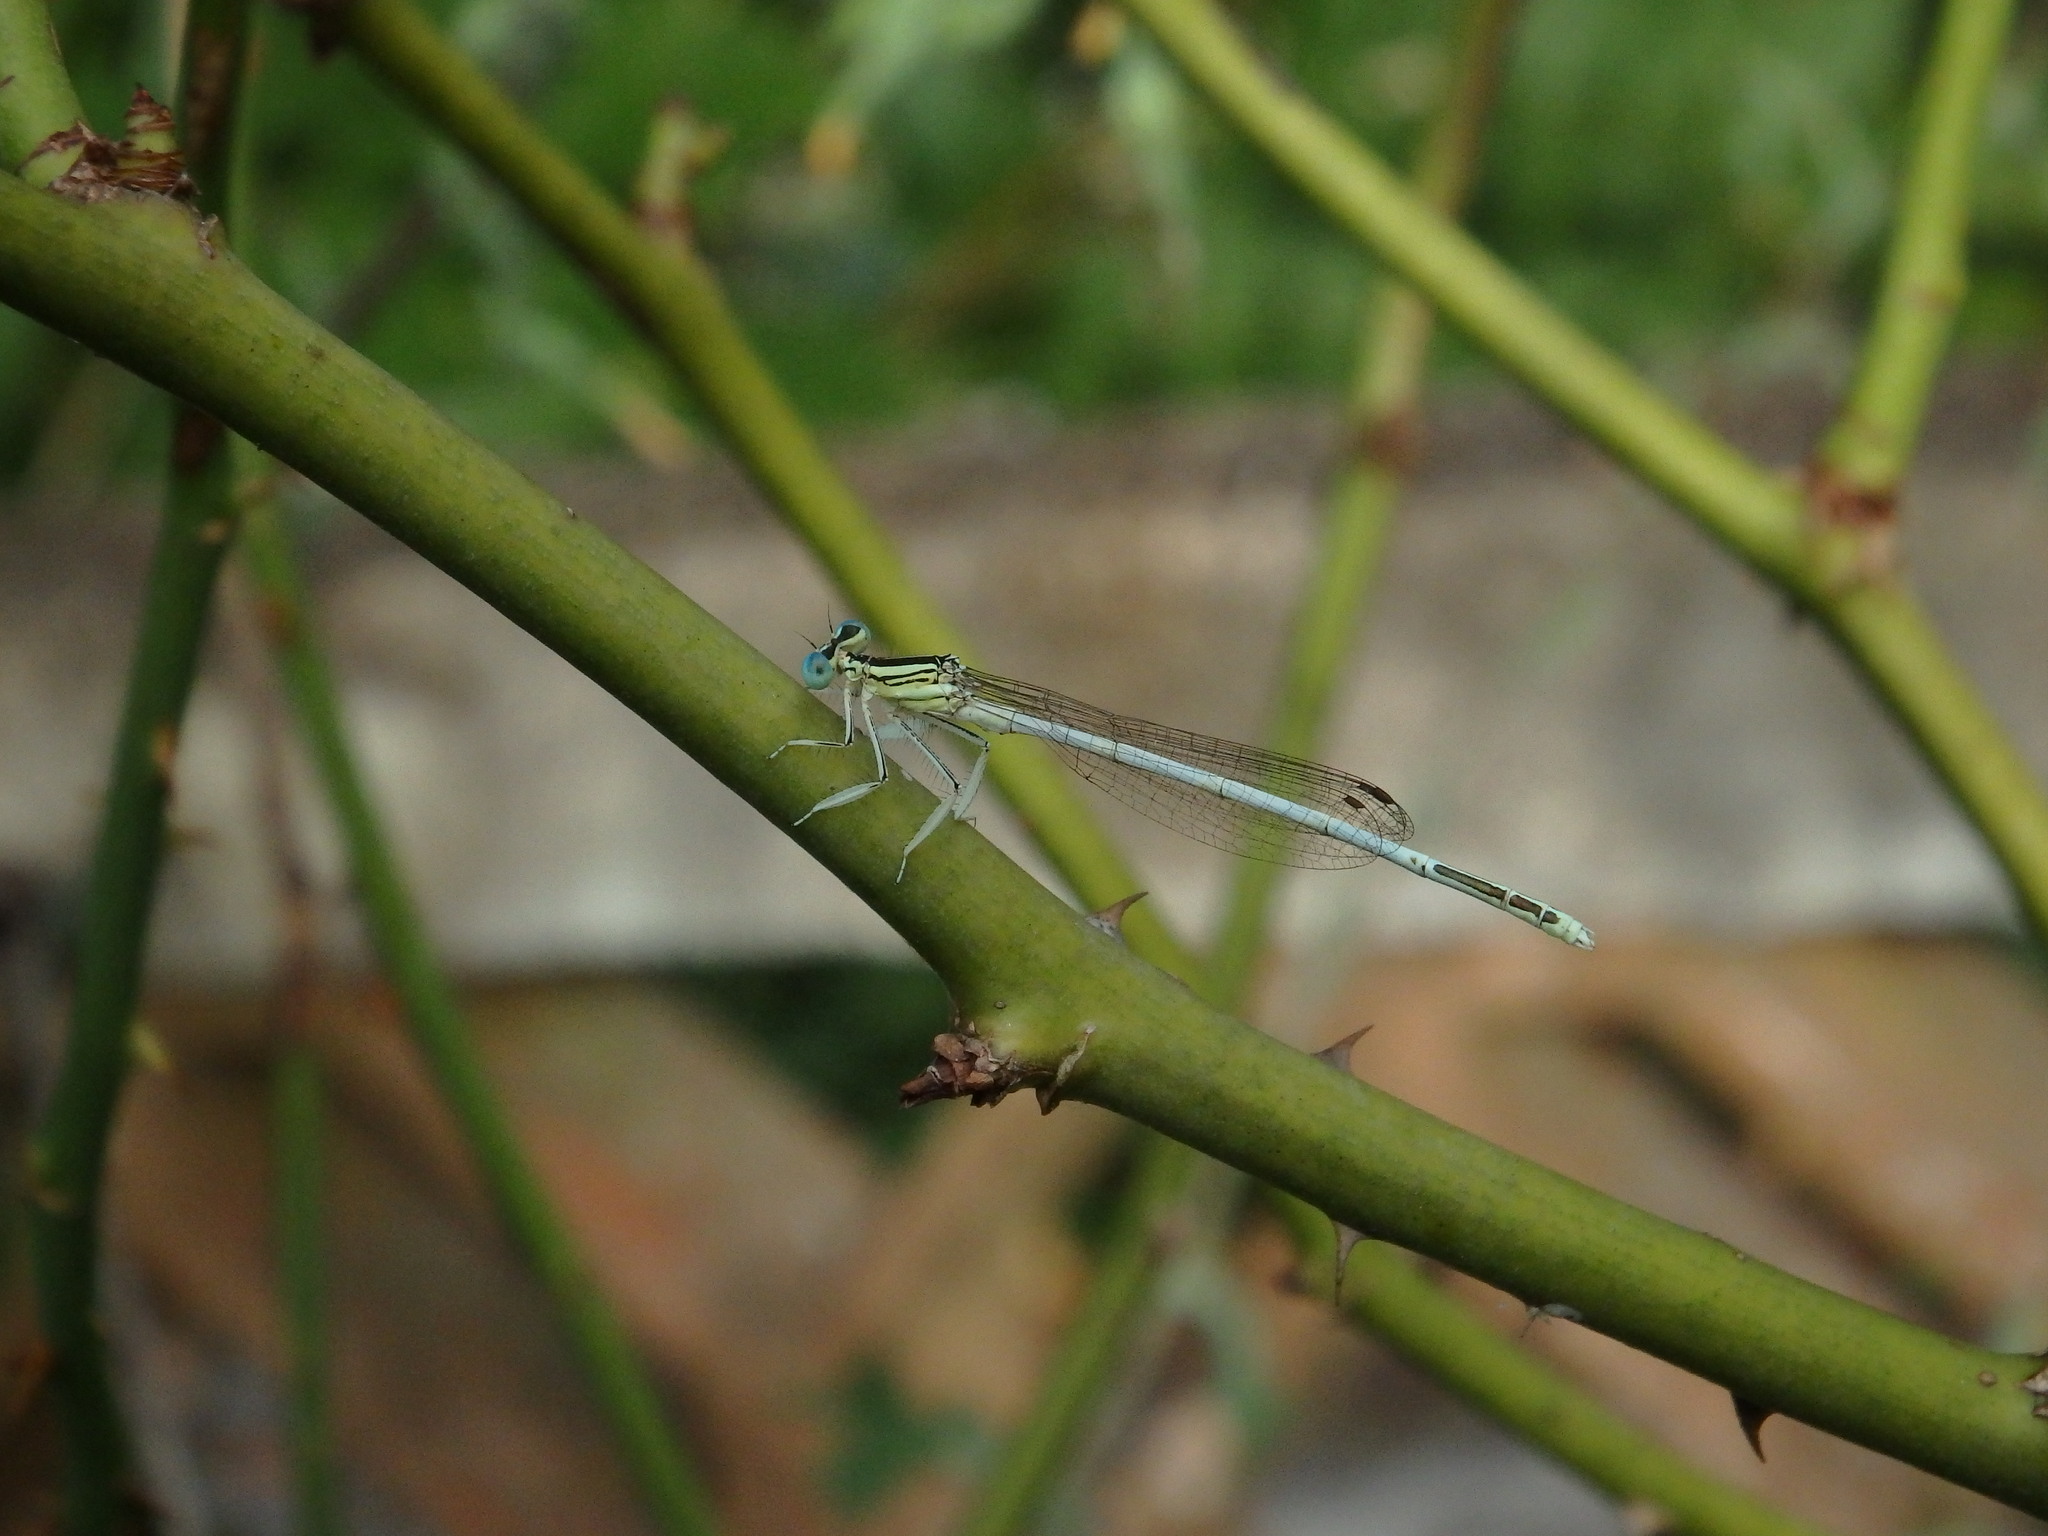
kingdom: Animalia
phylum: Arthropoda
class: Insecta
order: Odonata
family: Platycnemididae
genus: Platycnemis
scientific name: Platycnemis latipes
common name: White featherleg
